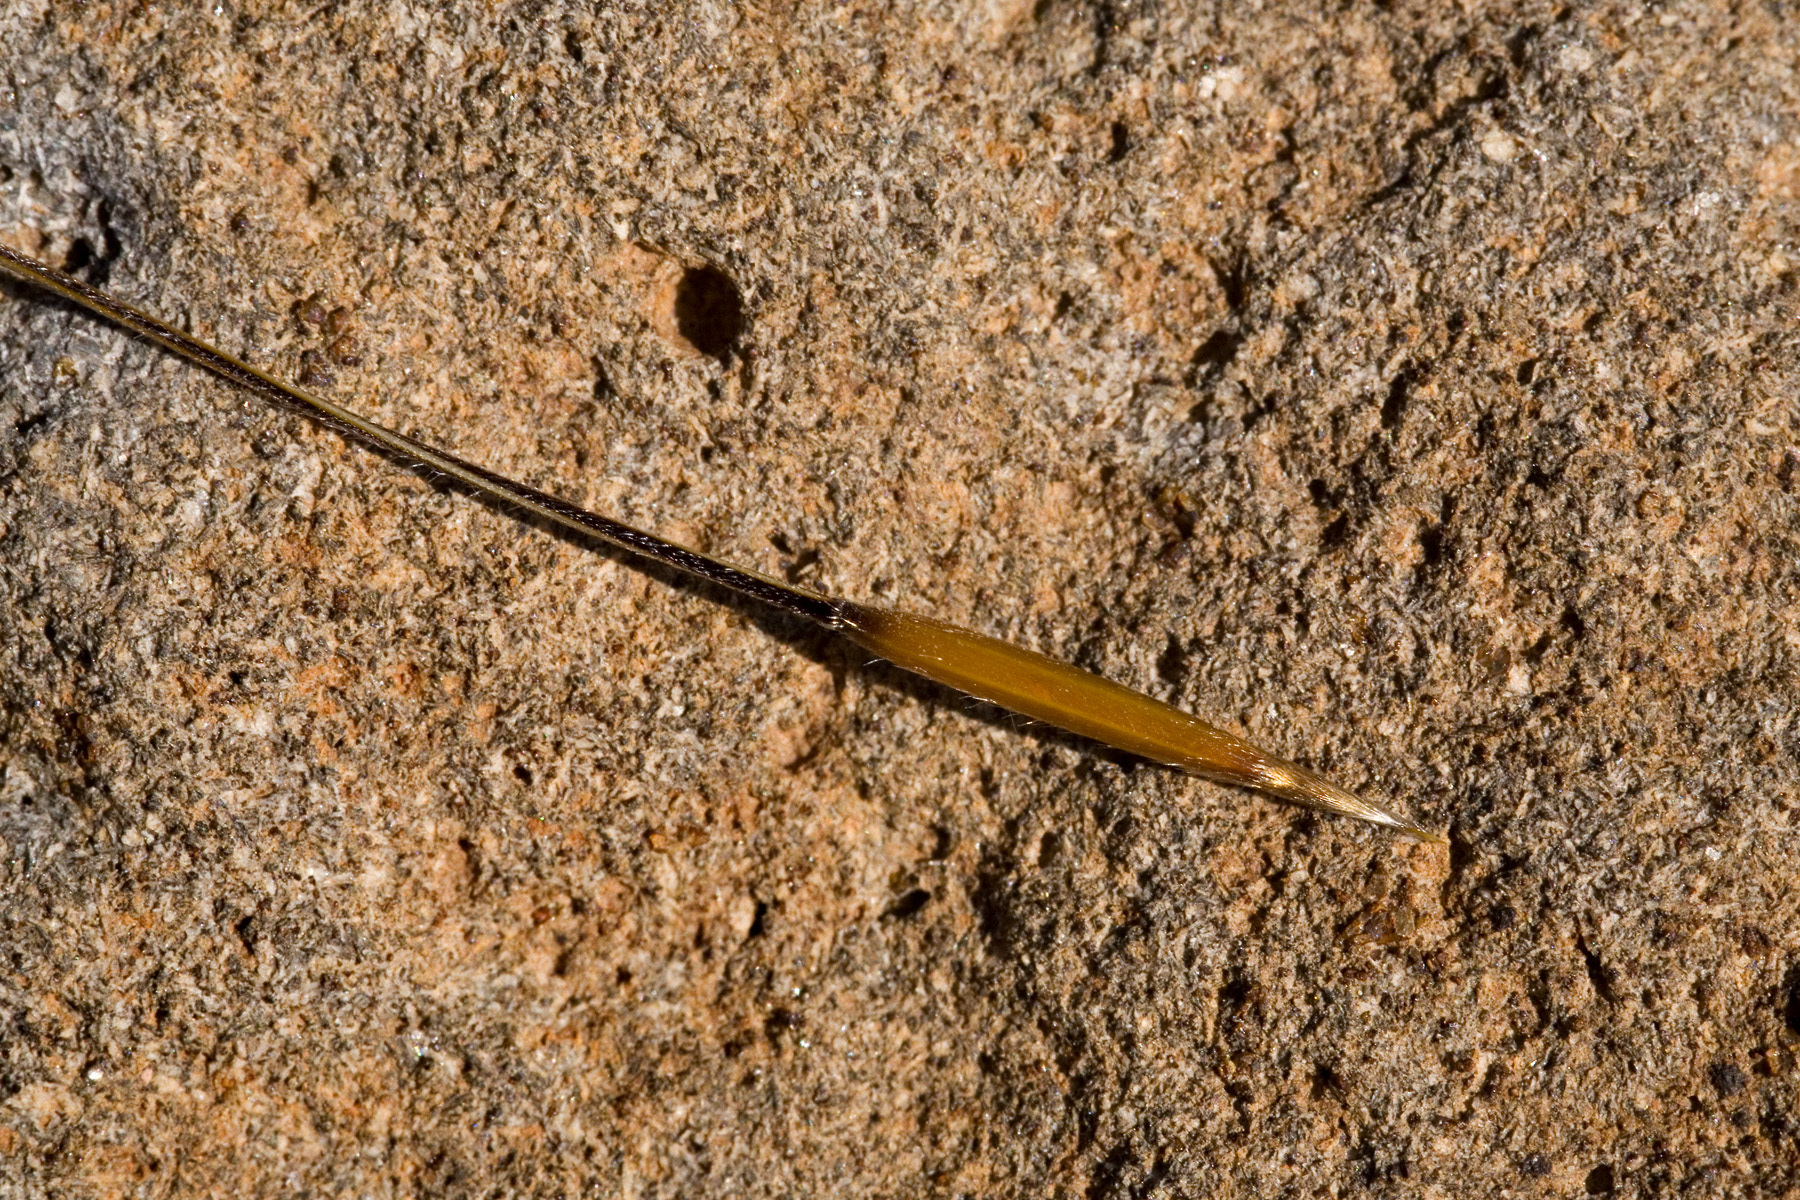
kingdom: Plantae
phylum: Tracheophyta
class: Liliopsida
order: Poales
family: Poaceae
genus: Hesperostipa
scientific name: Hesperostipa comata
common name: Needle-and-thread grass
